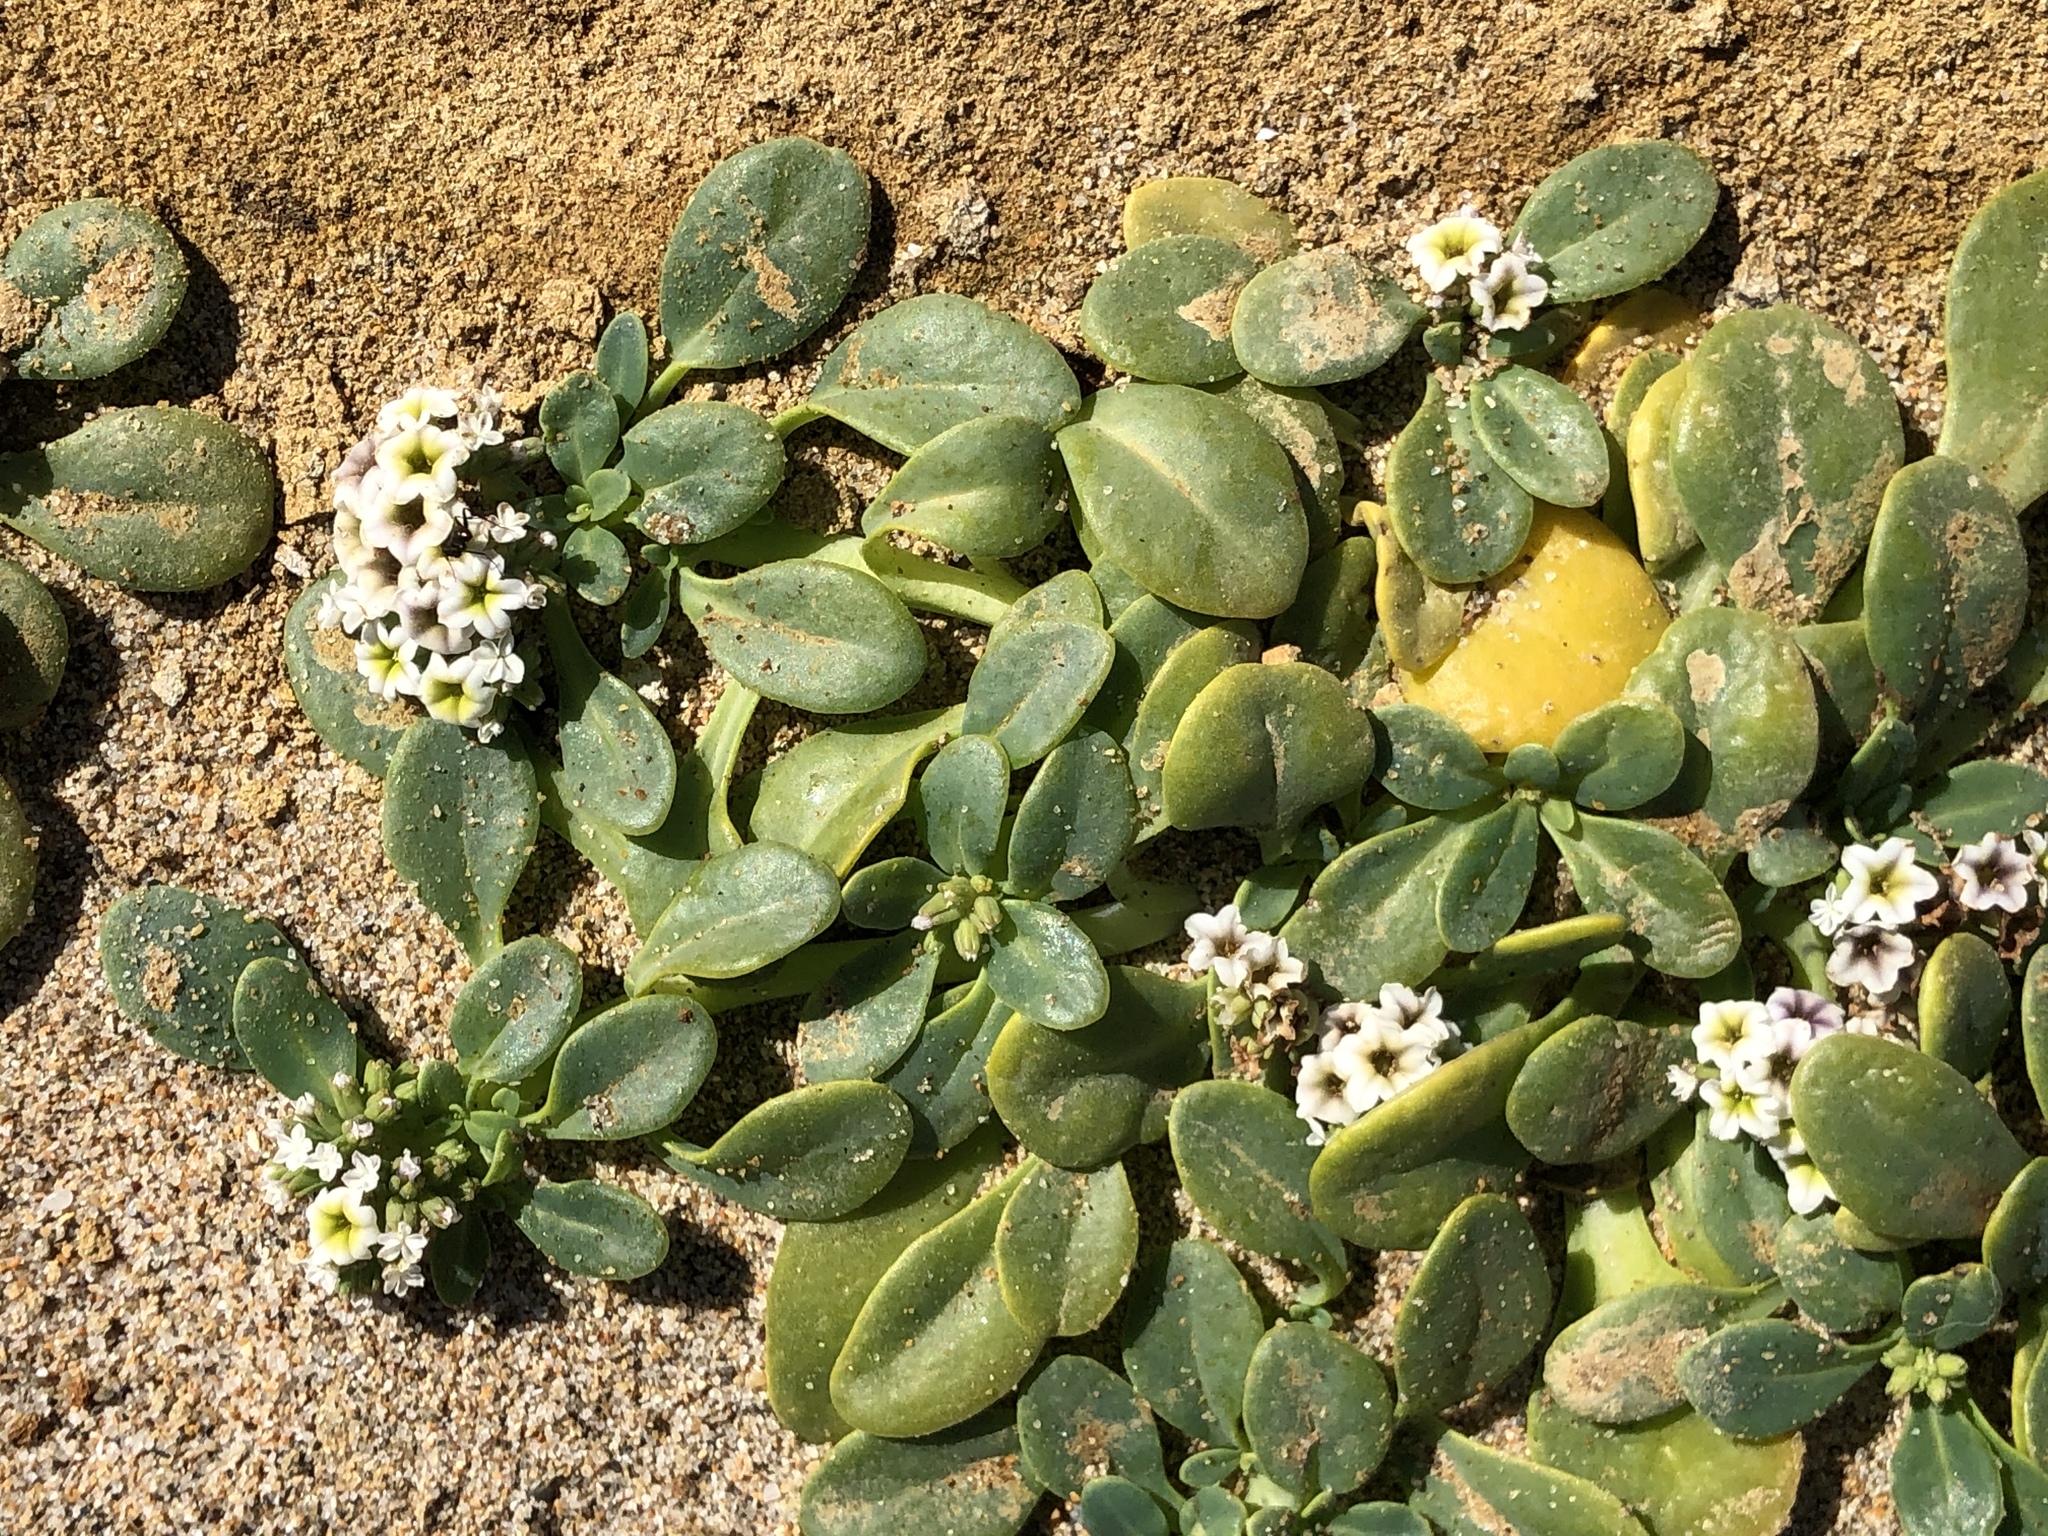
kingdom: Plantae
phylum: Tracheophyta
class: Magnoliopsida
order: Boraginales
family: Heliotropiaceae
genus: Heliotropium
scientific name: Heliotropium curassavicum
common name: Seaside heliotrope
